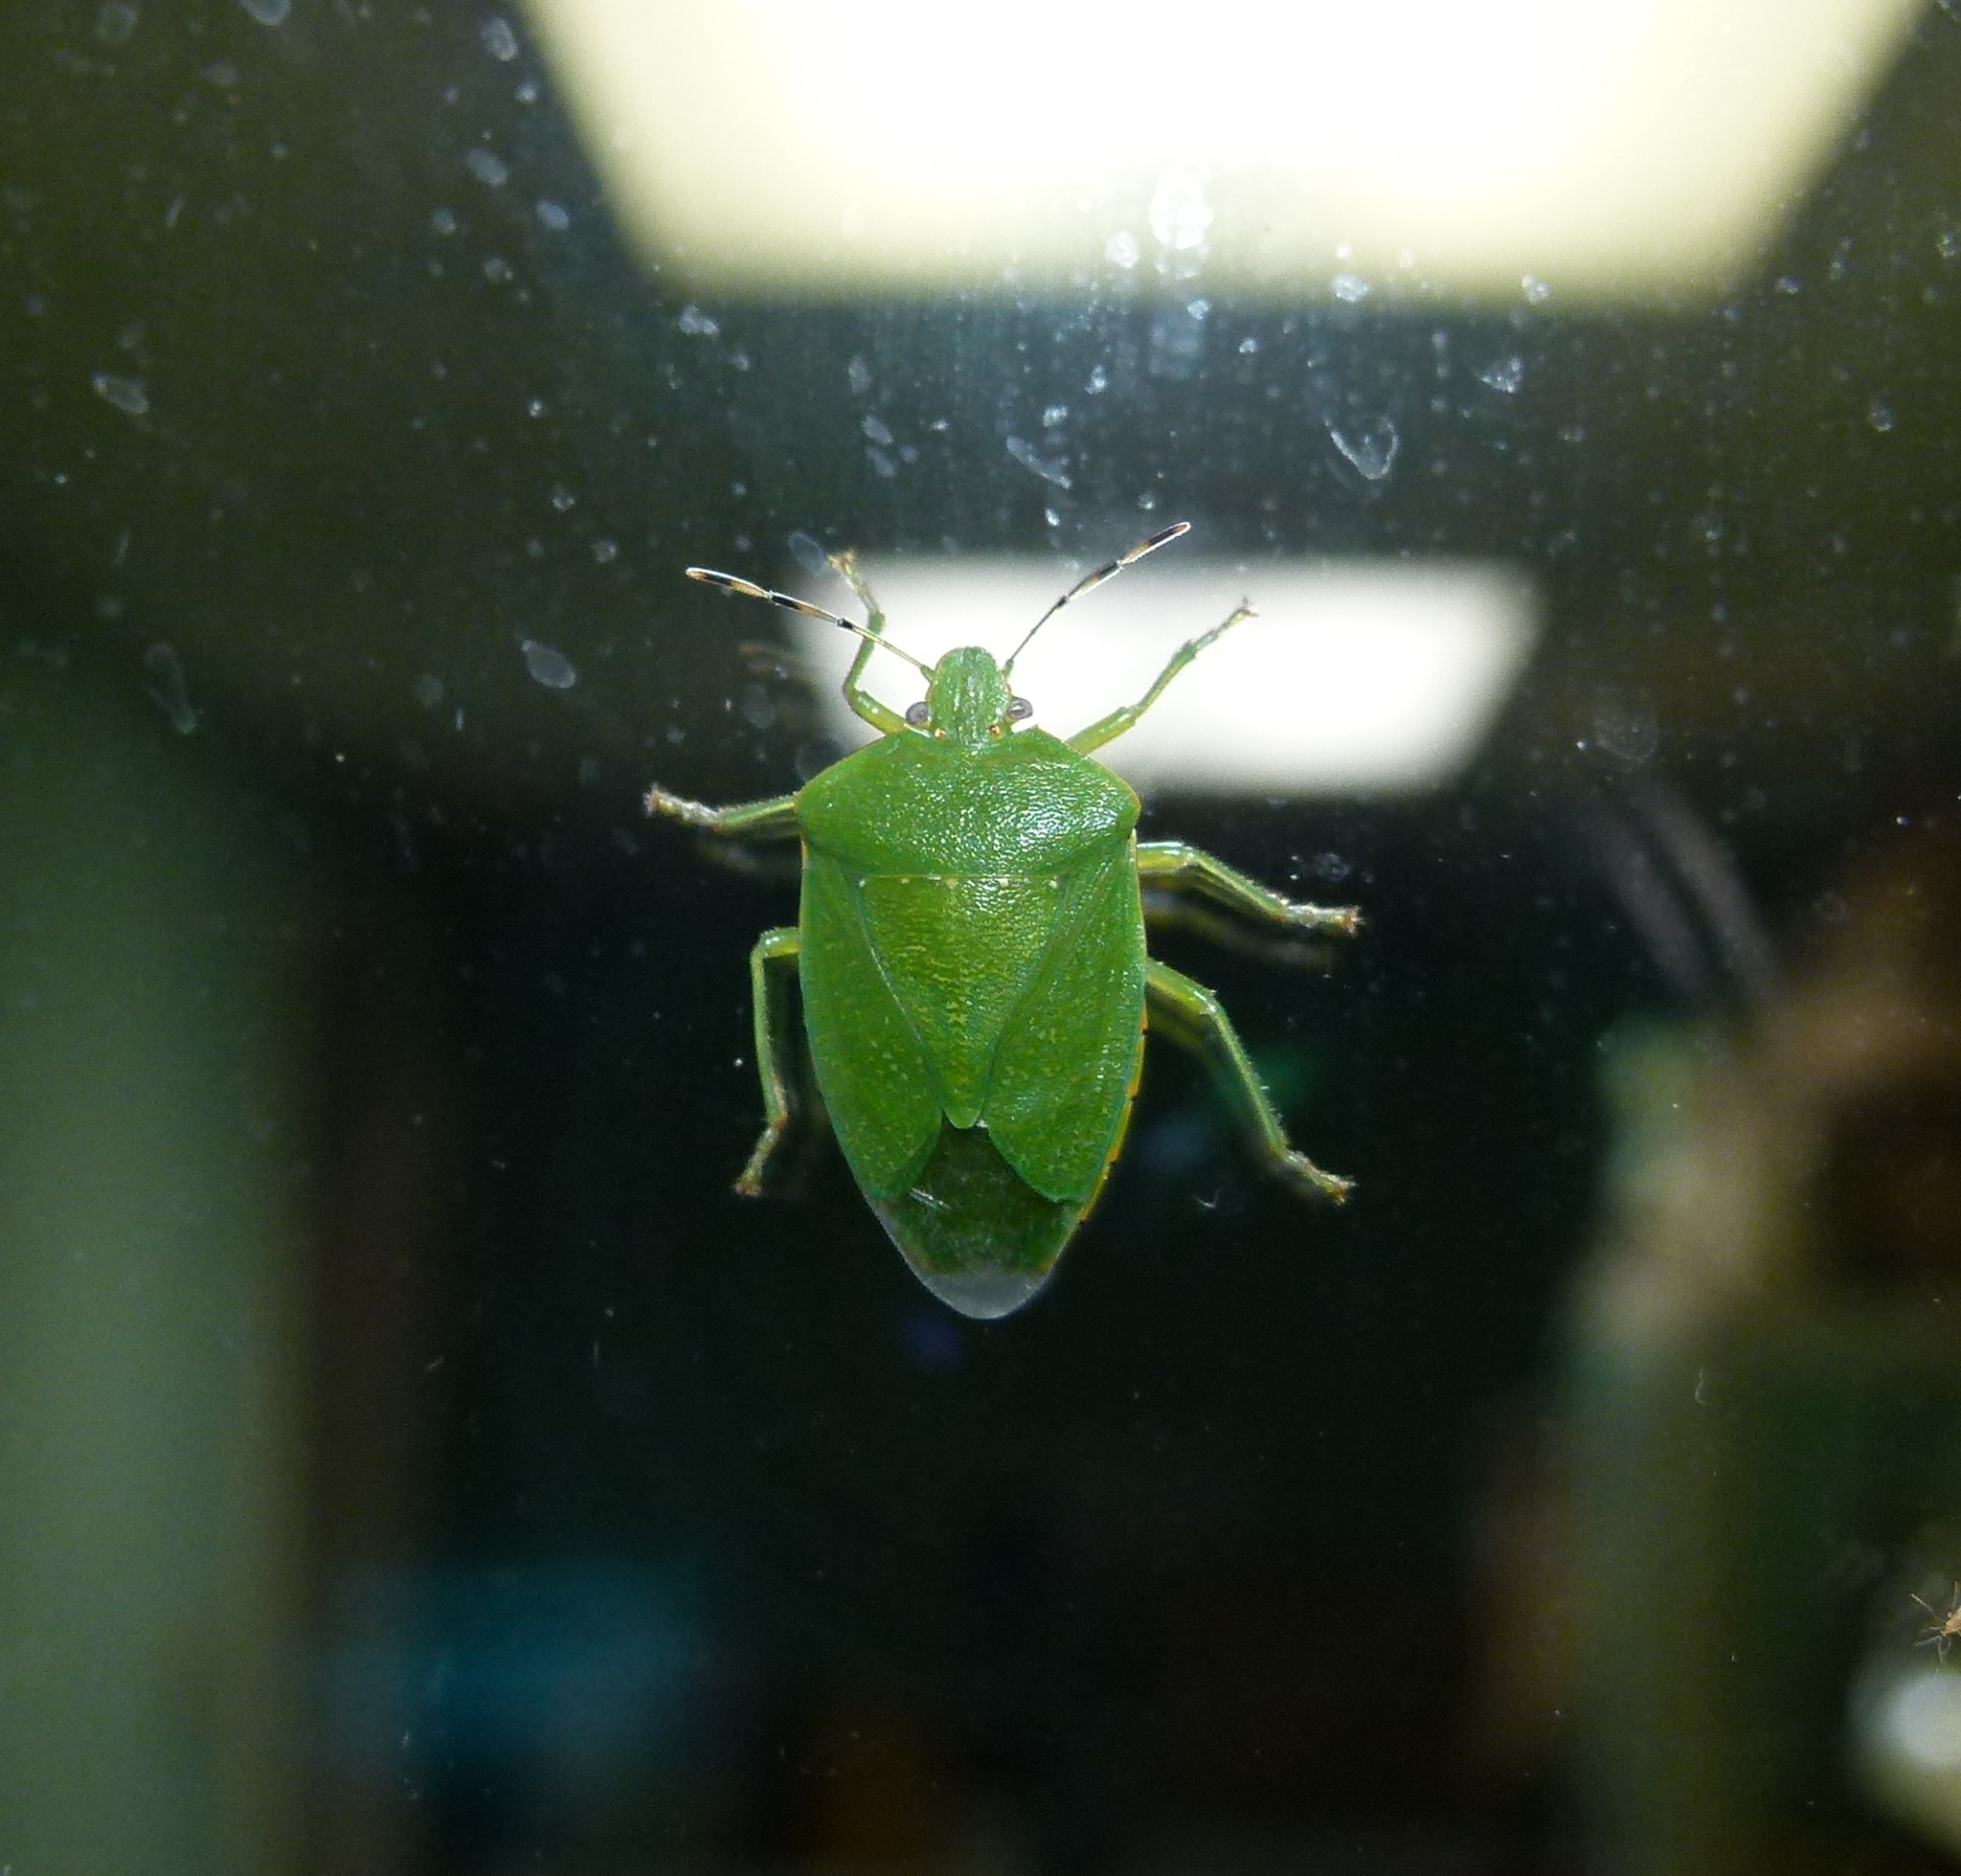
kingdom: Animalia
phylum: Arthropoda
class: Insecta
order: Hemiptera
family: Pentatomidae
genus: Chinavia
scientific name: Chinavia hilaris
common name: Green stink bug
